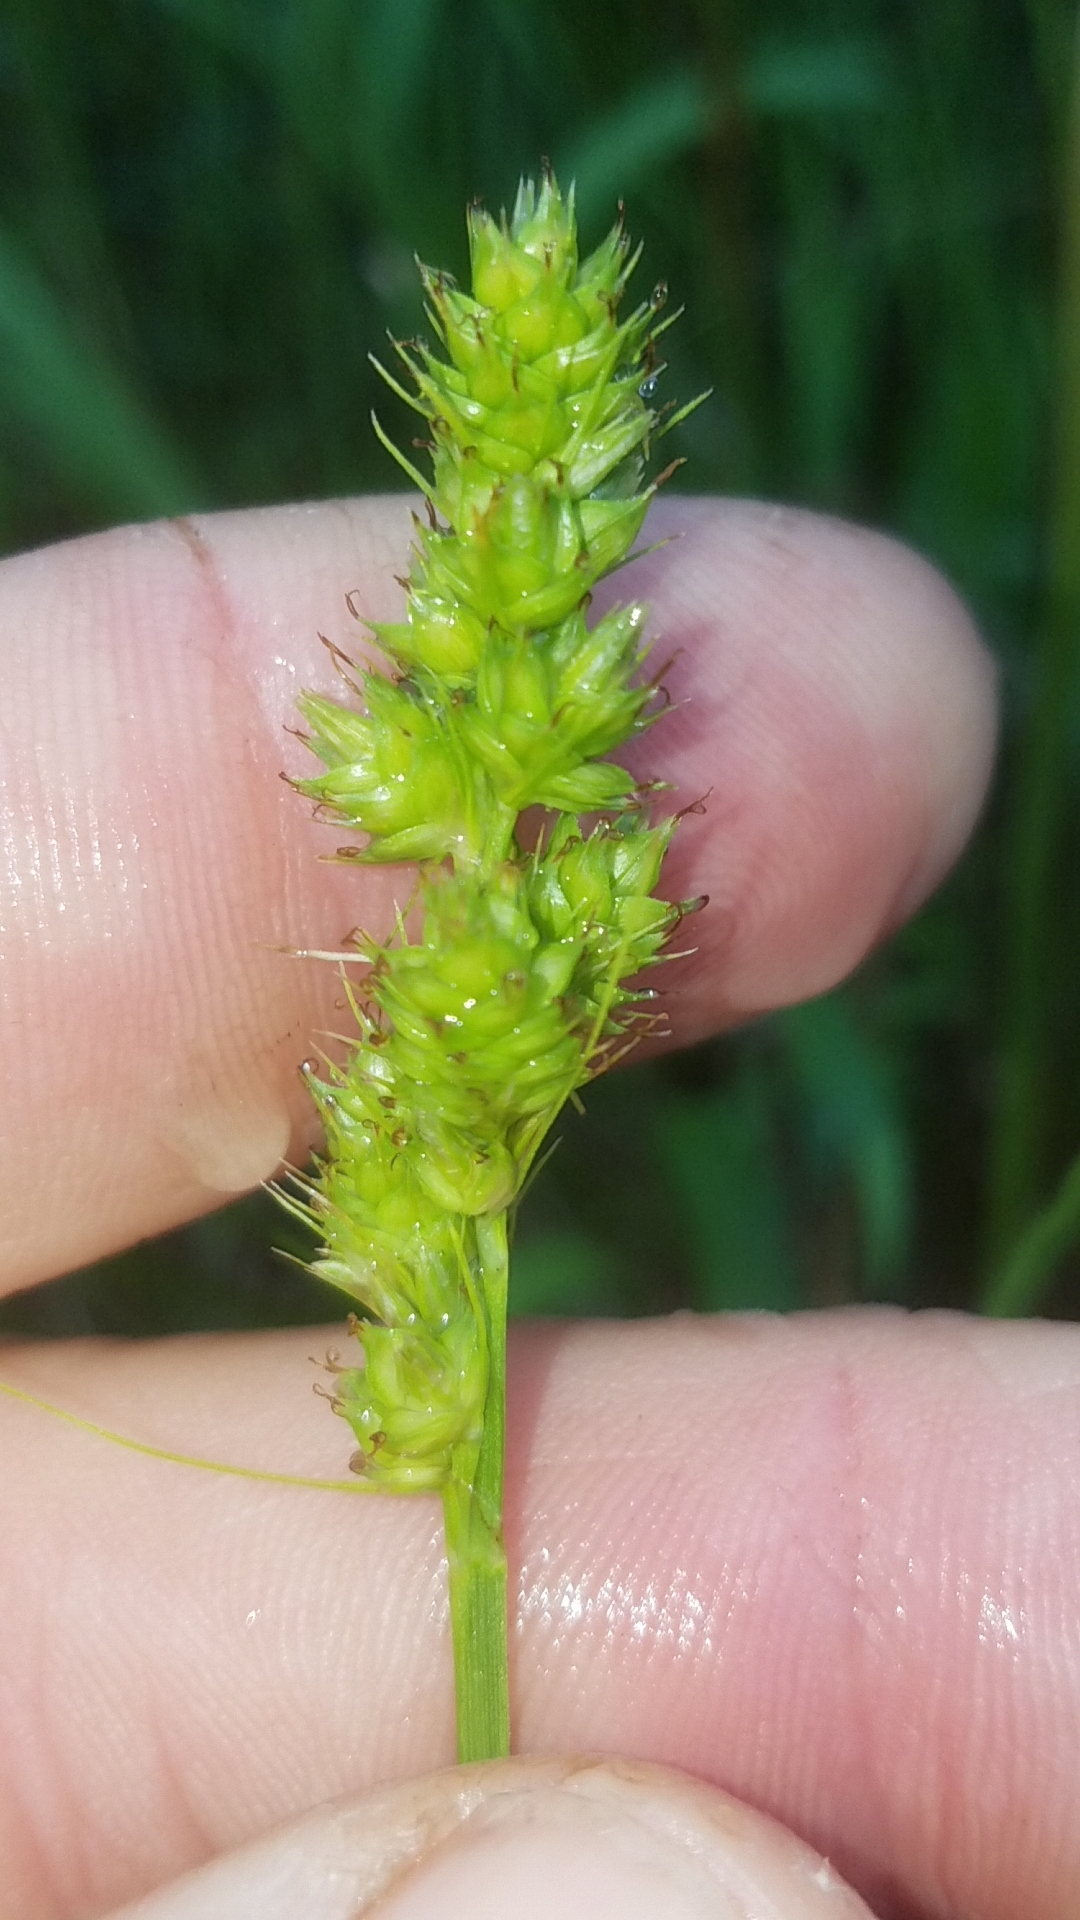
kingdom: Plantae
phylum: Tracheophyta
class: Liliopsida
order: Poales
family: Cyperaceae
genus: Carex
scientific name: Carex austrina
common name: Southern sedge
